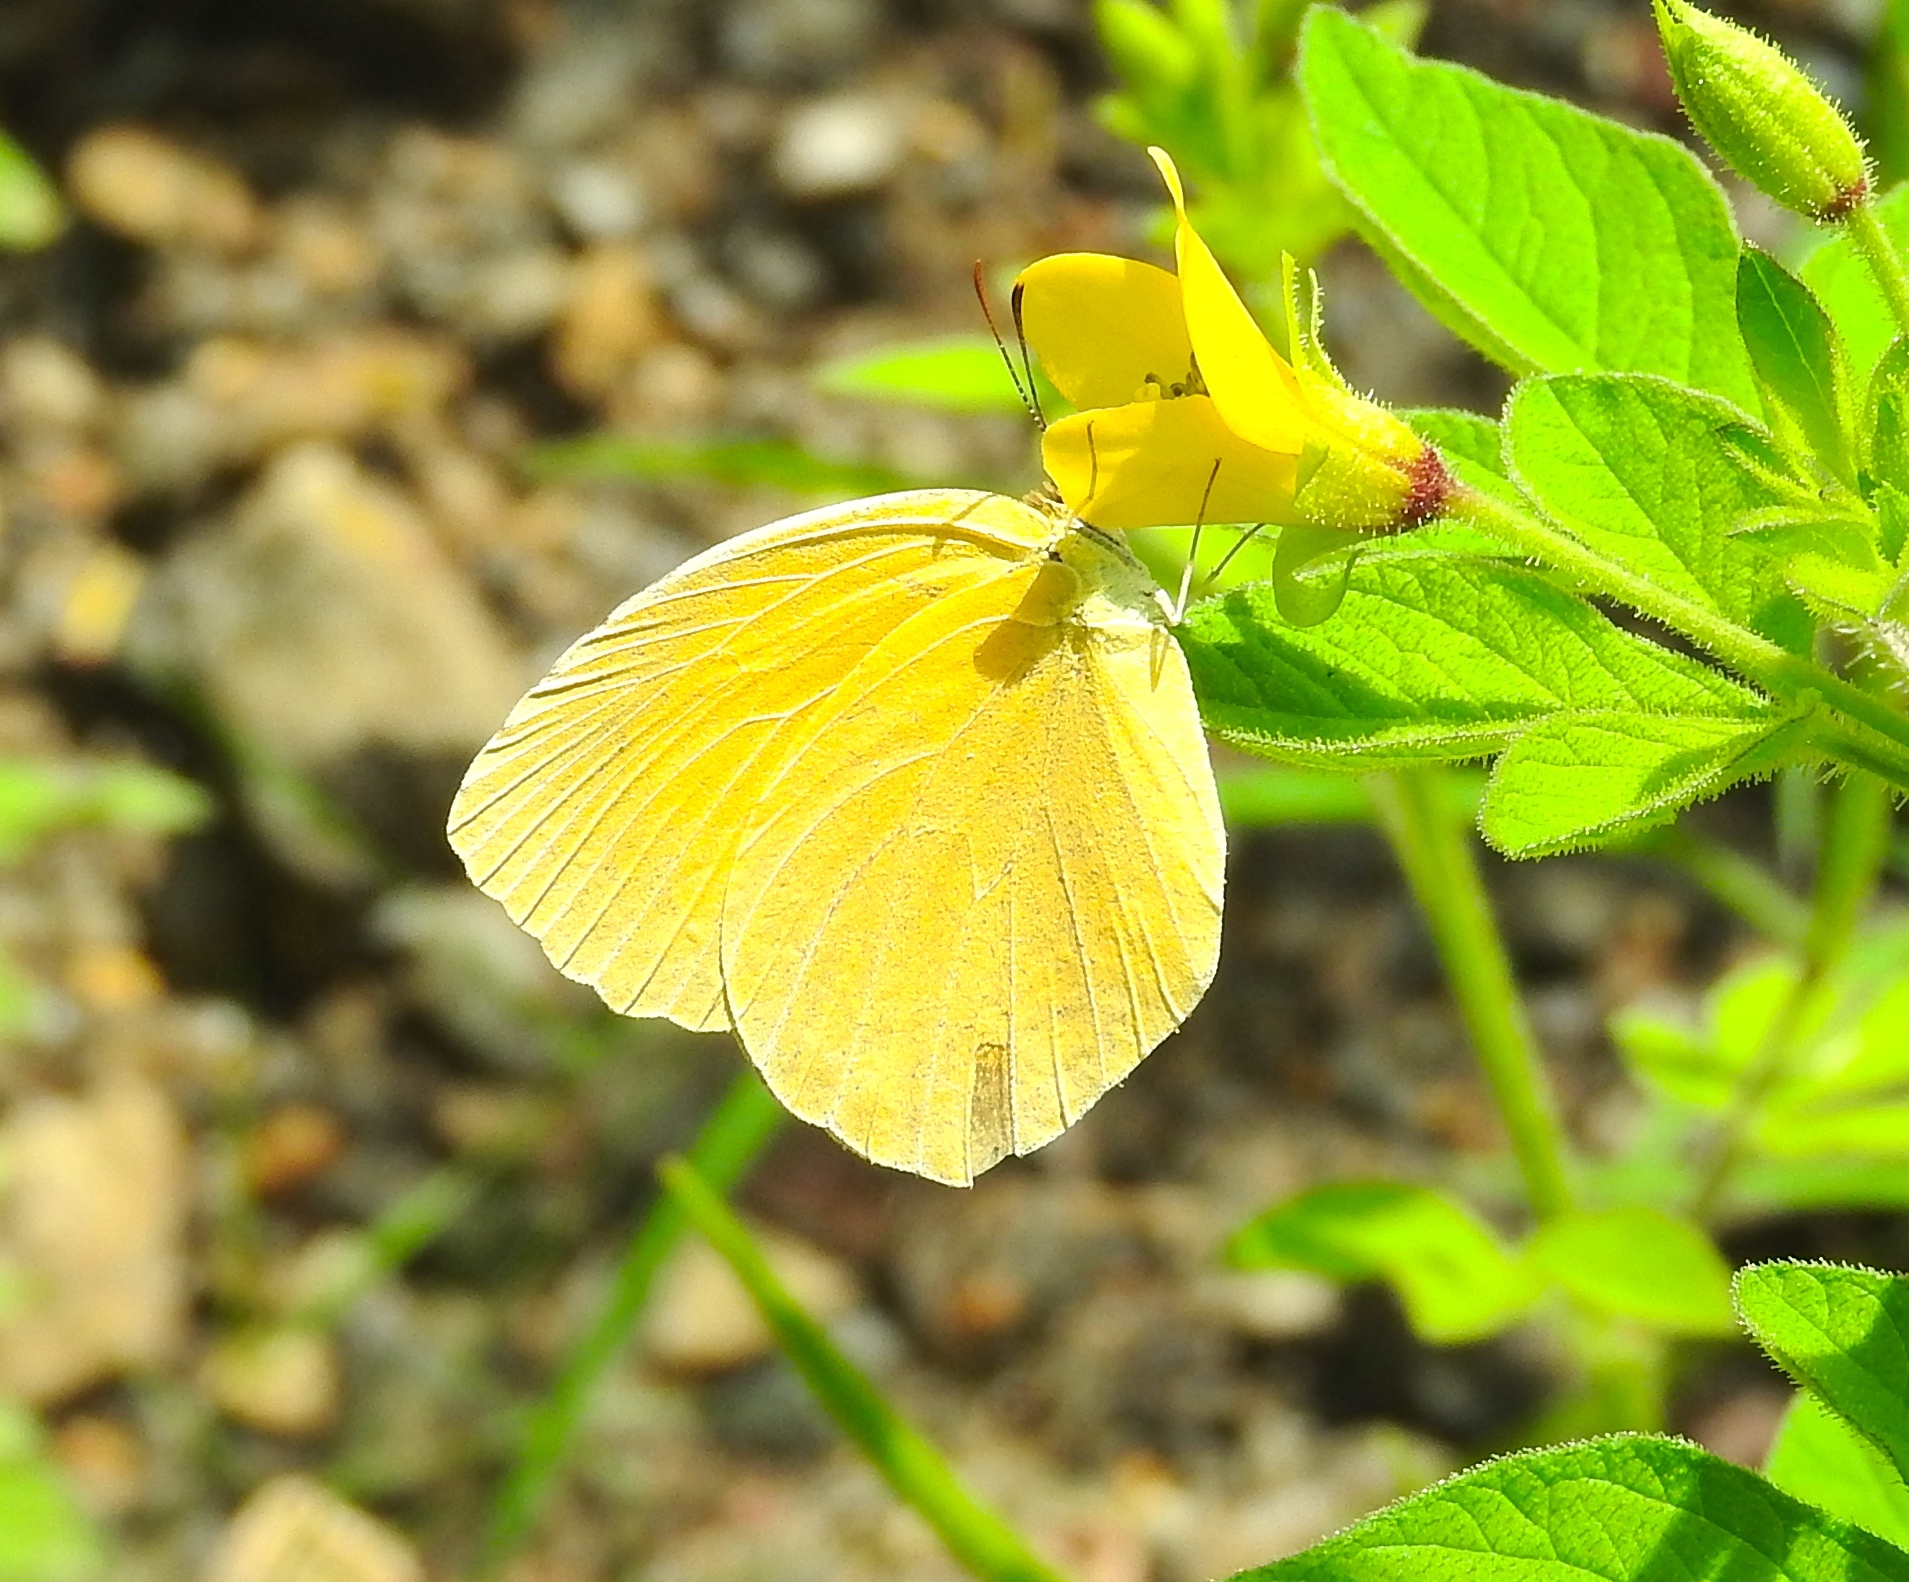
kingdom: Animalia
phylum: Arthropoda
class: Insecta
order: Lepidoptera
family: Pieridae
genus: Pyrisitia
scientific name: Pyrisitia proterpia
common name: Tailed orange
